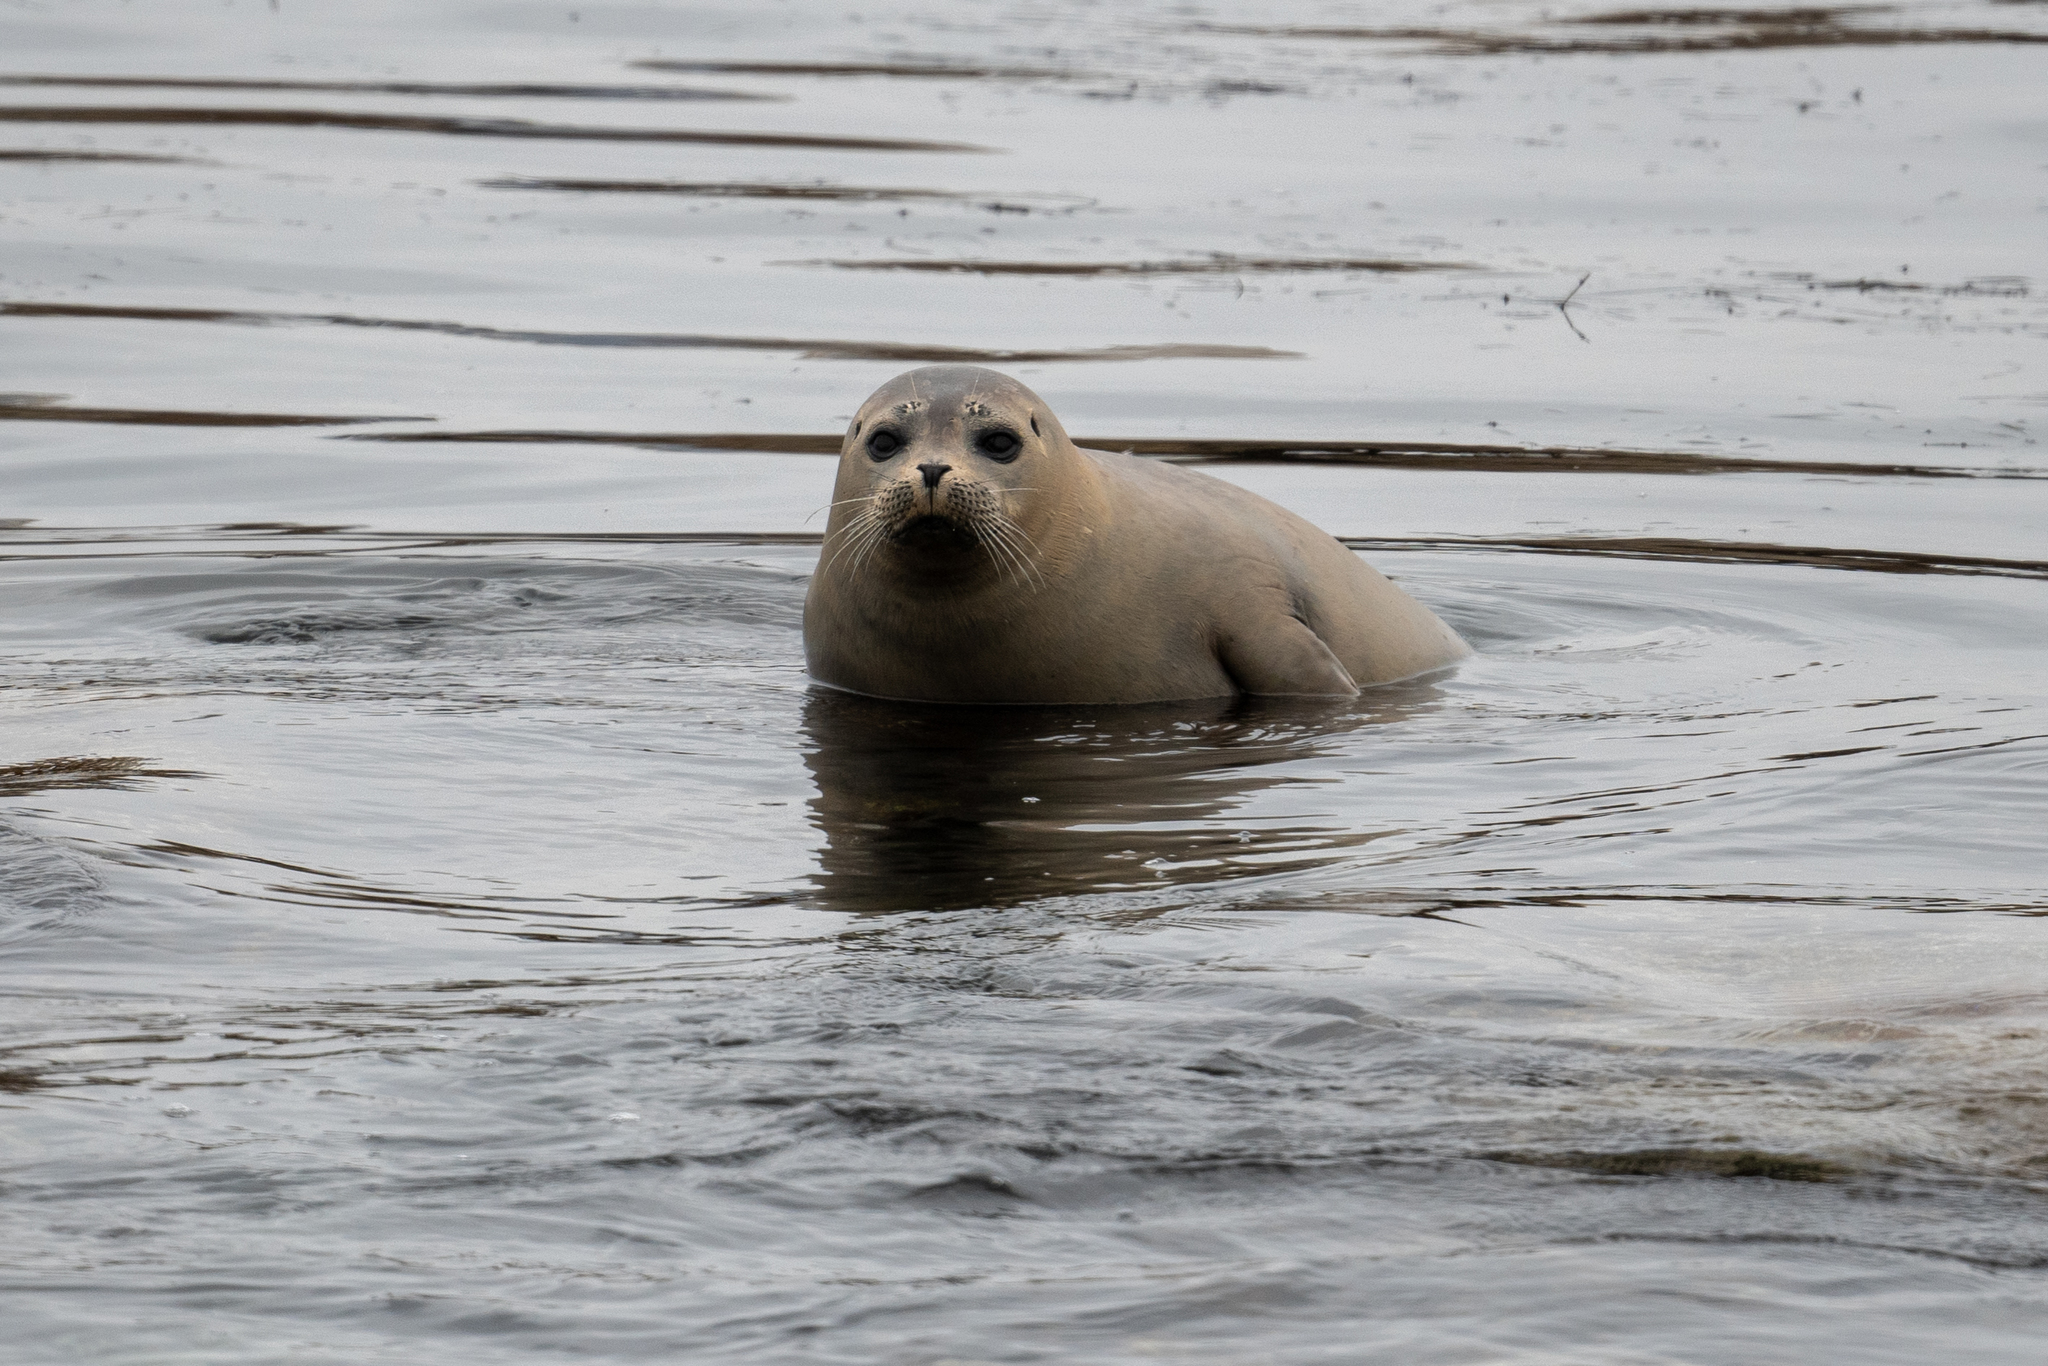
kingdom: Animalia
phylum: Chordata
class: Mammalia
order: Carnivora
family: Phocidae
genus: Phoca
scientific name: Phoca vitulina
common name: Harbor seal
